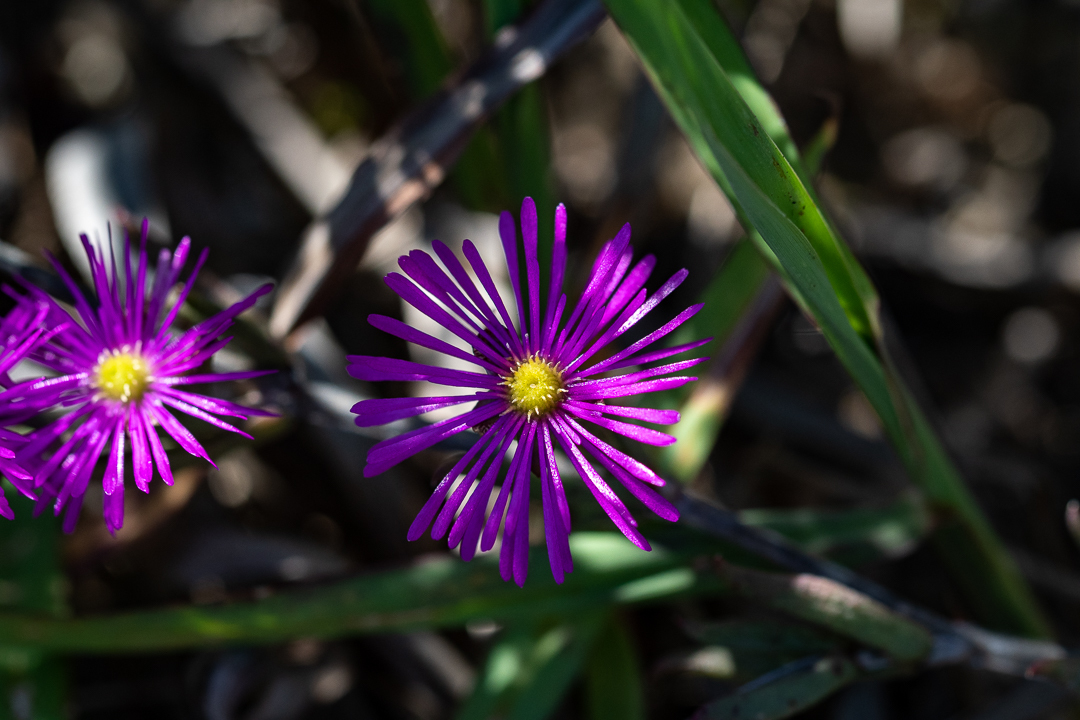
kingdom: Plantae
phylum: Tracheophyta
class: Magnoliopsida
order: Caryophyllales
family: Aizoaceae
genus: Erepsia
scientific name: Erepsia bracteata
